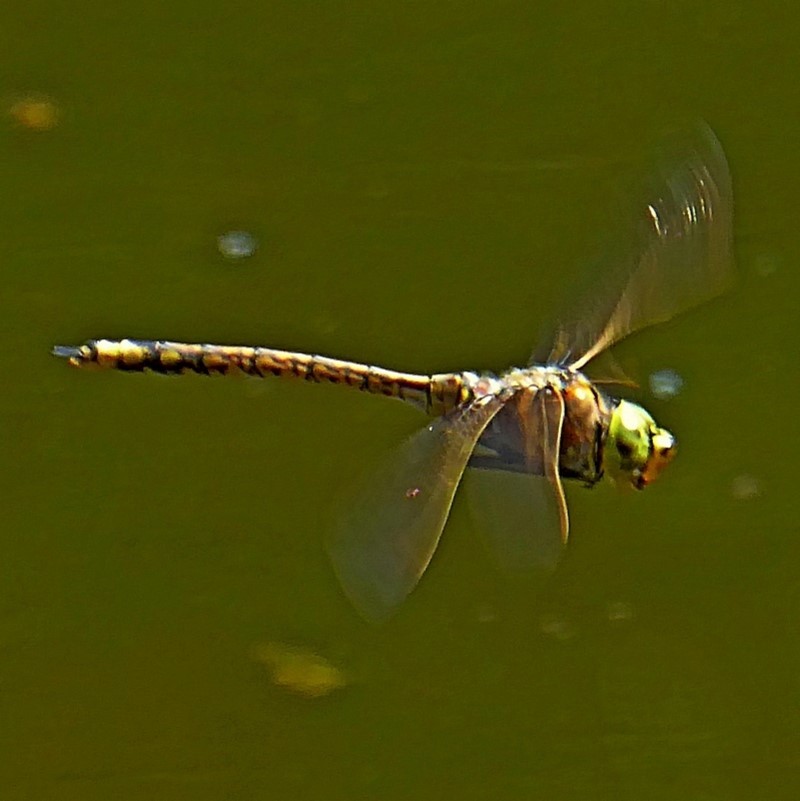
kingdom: Animalia
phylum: Arthropoda
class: Insecta
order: Odonata
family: Aeshnidae
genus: Anax
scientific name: Anax papuensis
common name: Australian emperor
